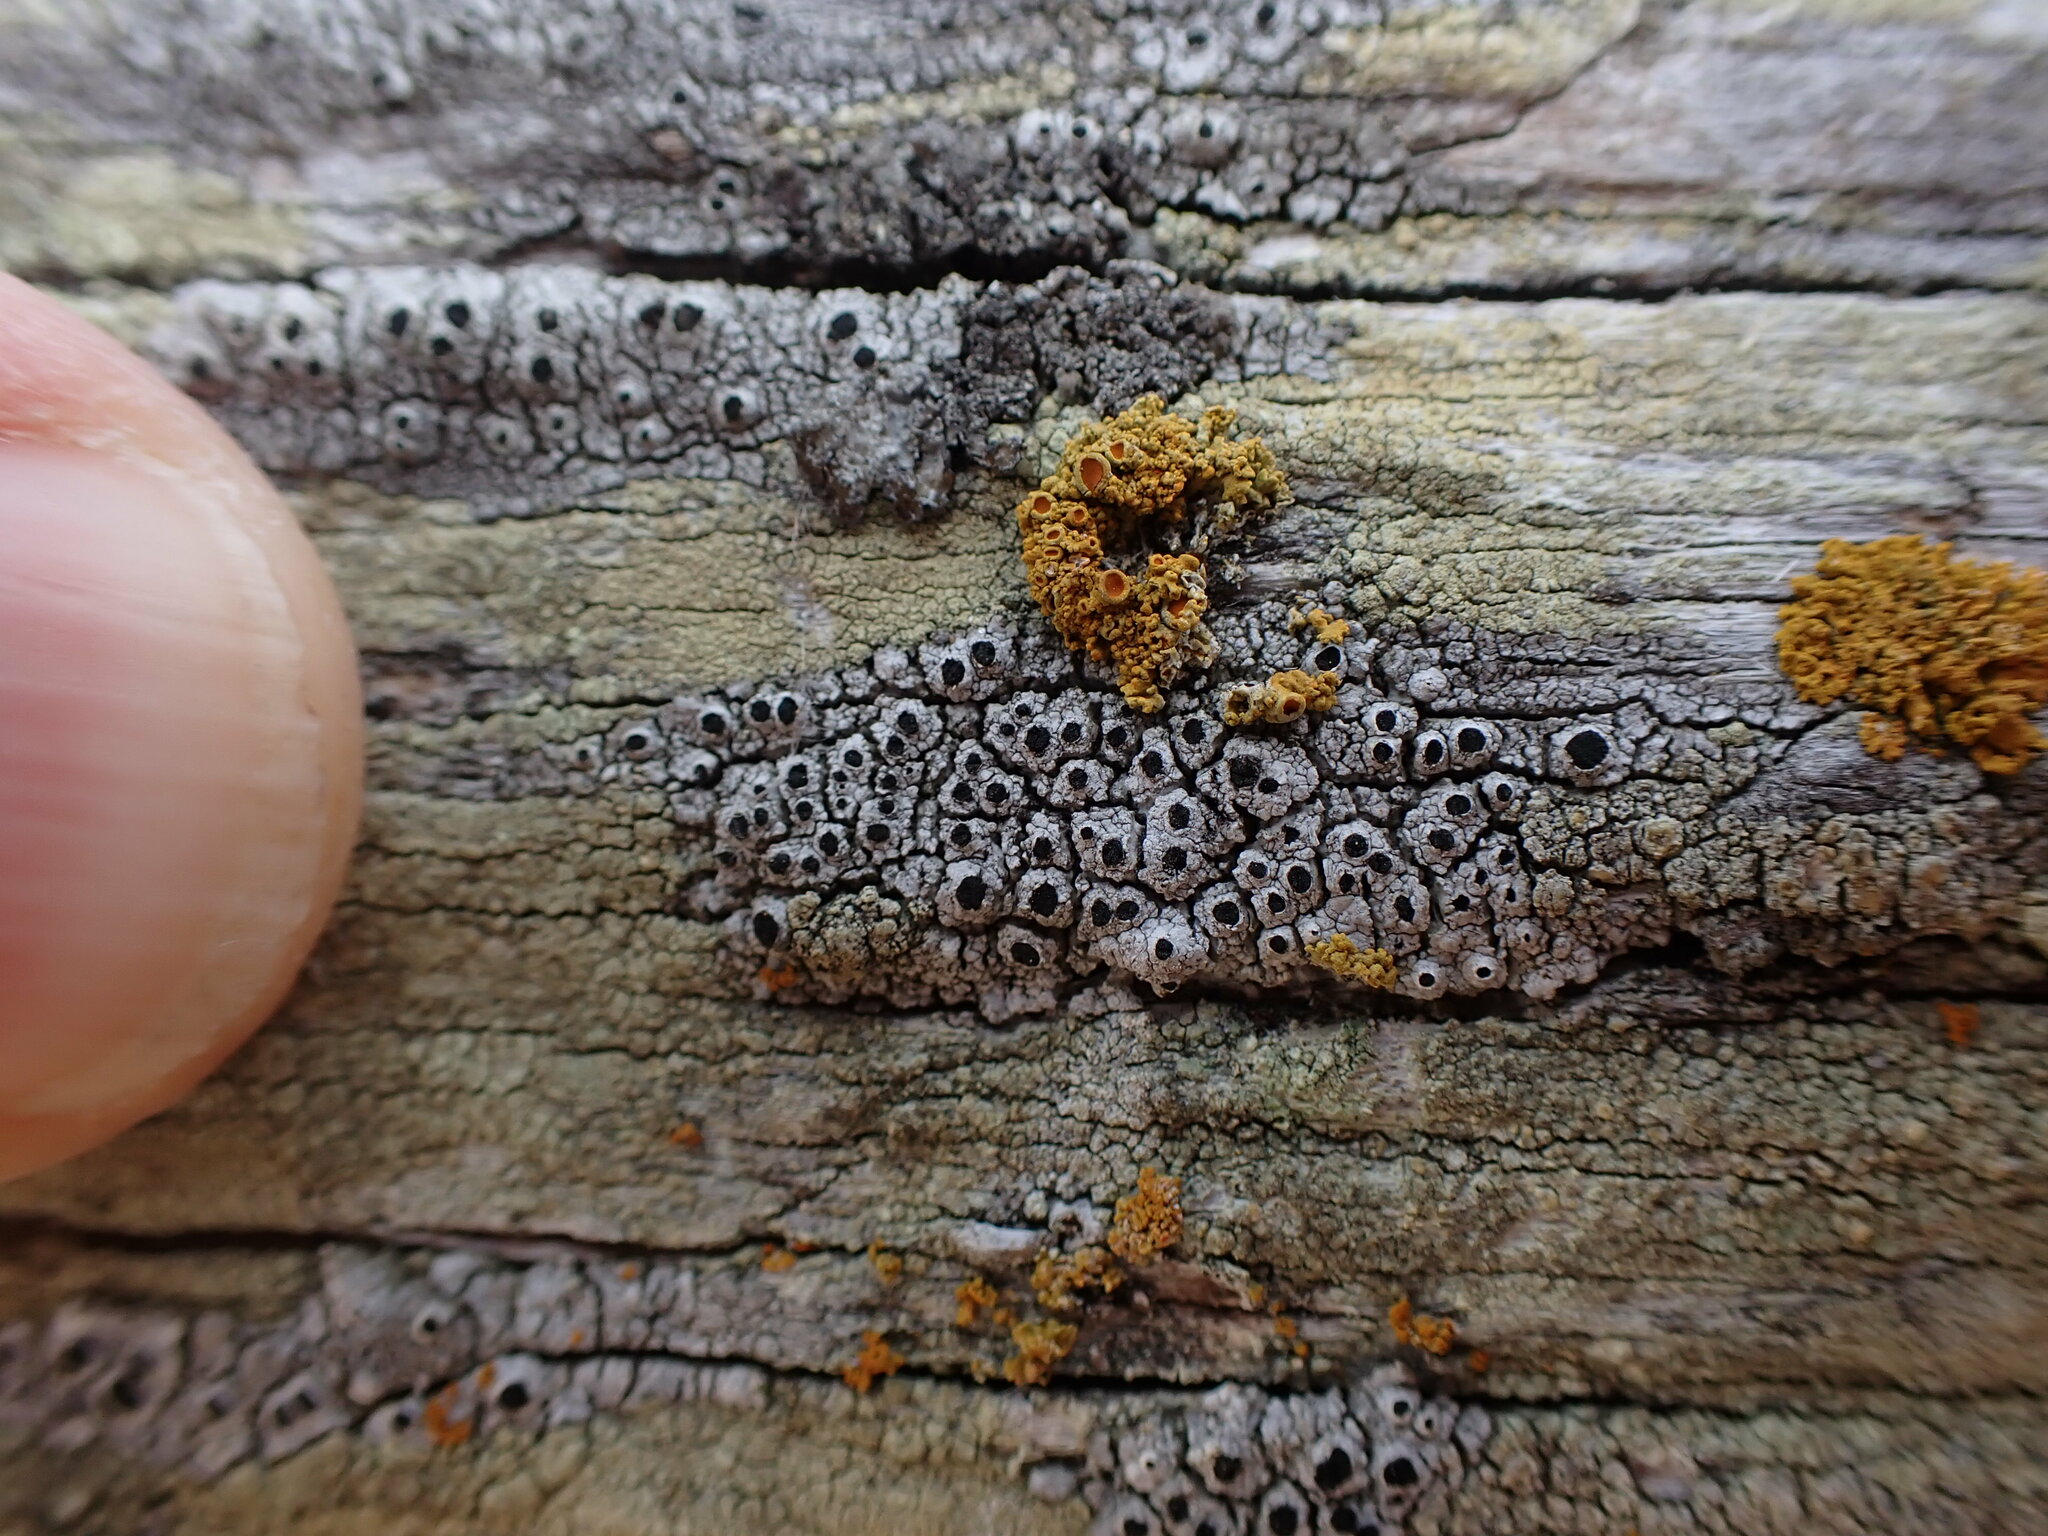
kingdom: Fungi
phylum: Ascomycota
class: Lecanoromycetes
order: Caliciales
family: Caliciaceae
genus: Pseudothelomma
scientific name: Pseudothelomma occidentale
